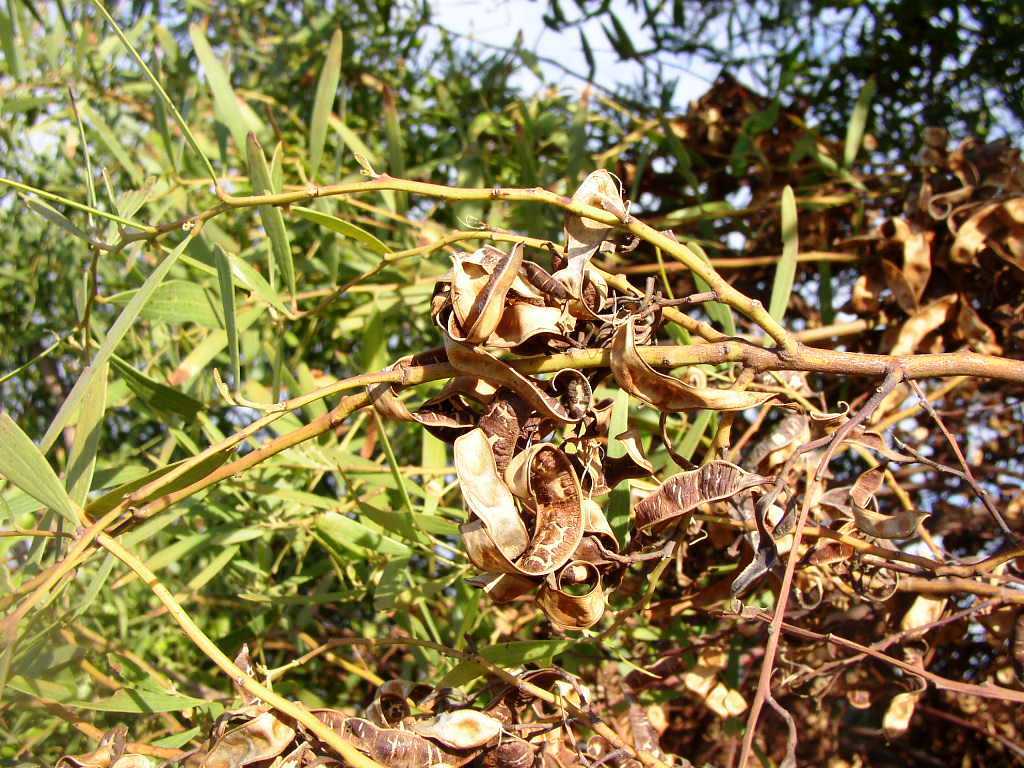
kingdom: Plantae
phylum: Tracheophyta
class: Magnoliopsida
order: Fabales
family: Fabaceae
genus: Acacia
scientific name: Acacia cyclops
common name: Coastal wattle
